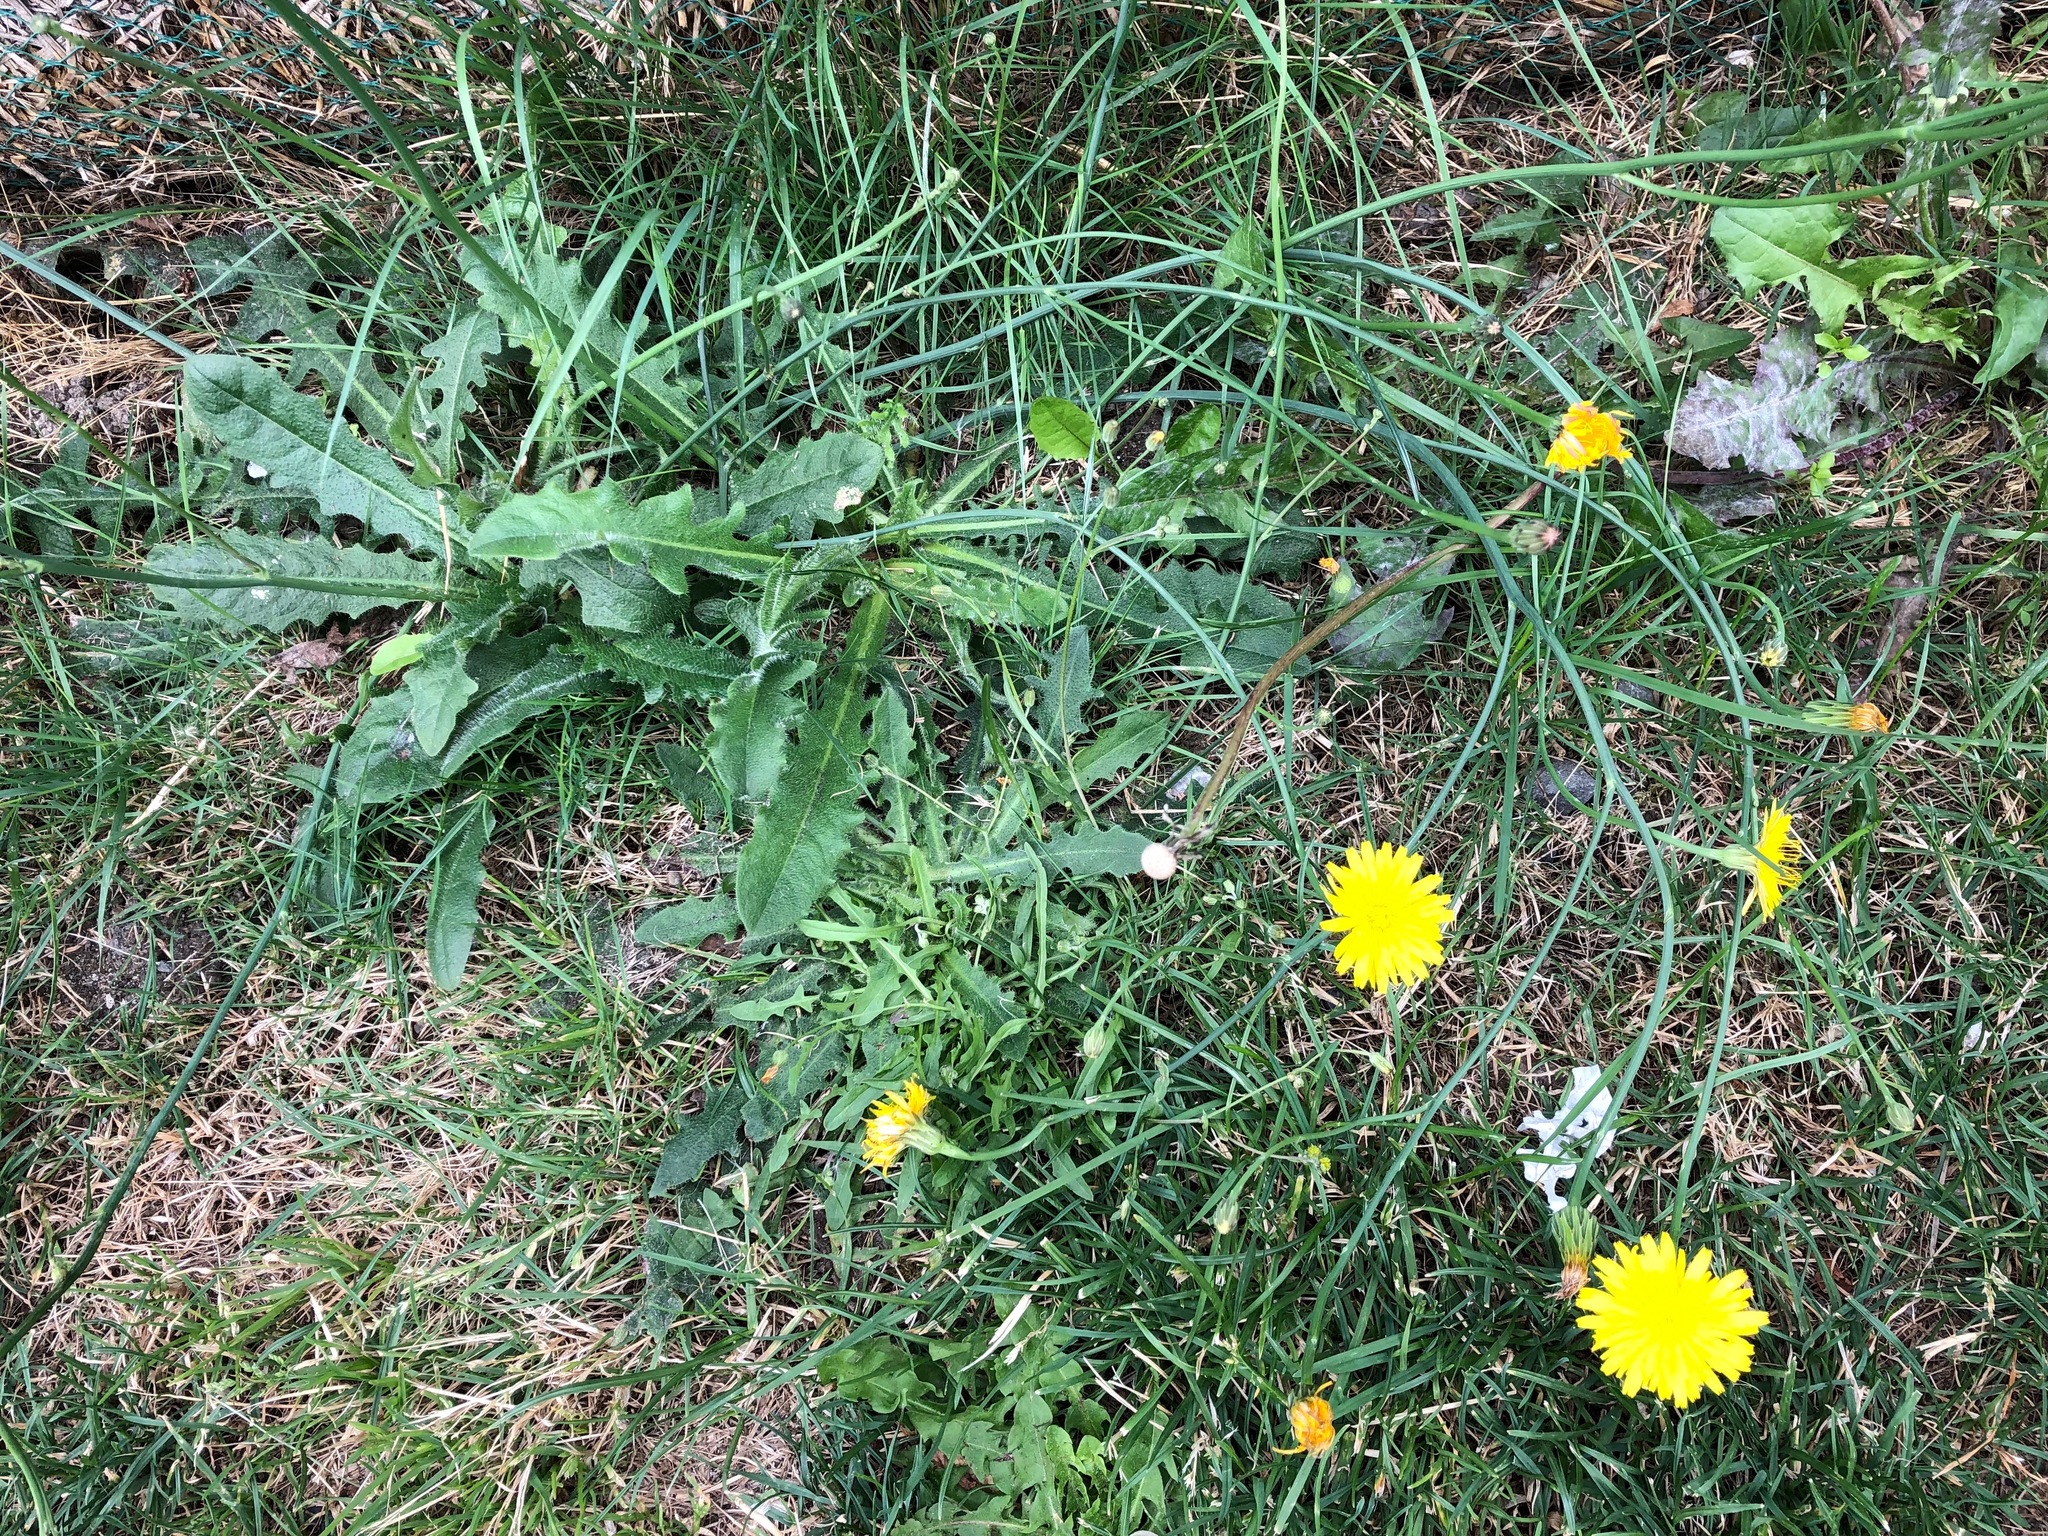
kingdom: Plantae
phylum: Tracheophyta
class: Magnoliopsida
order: Asterales
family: Asteraceae
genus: Hypochaeris
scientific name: Hypochaeris radicata
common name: Flatweed
